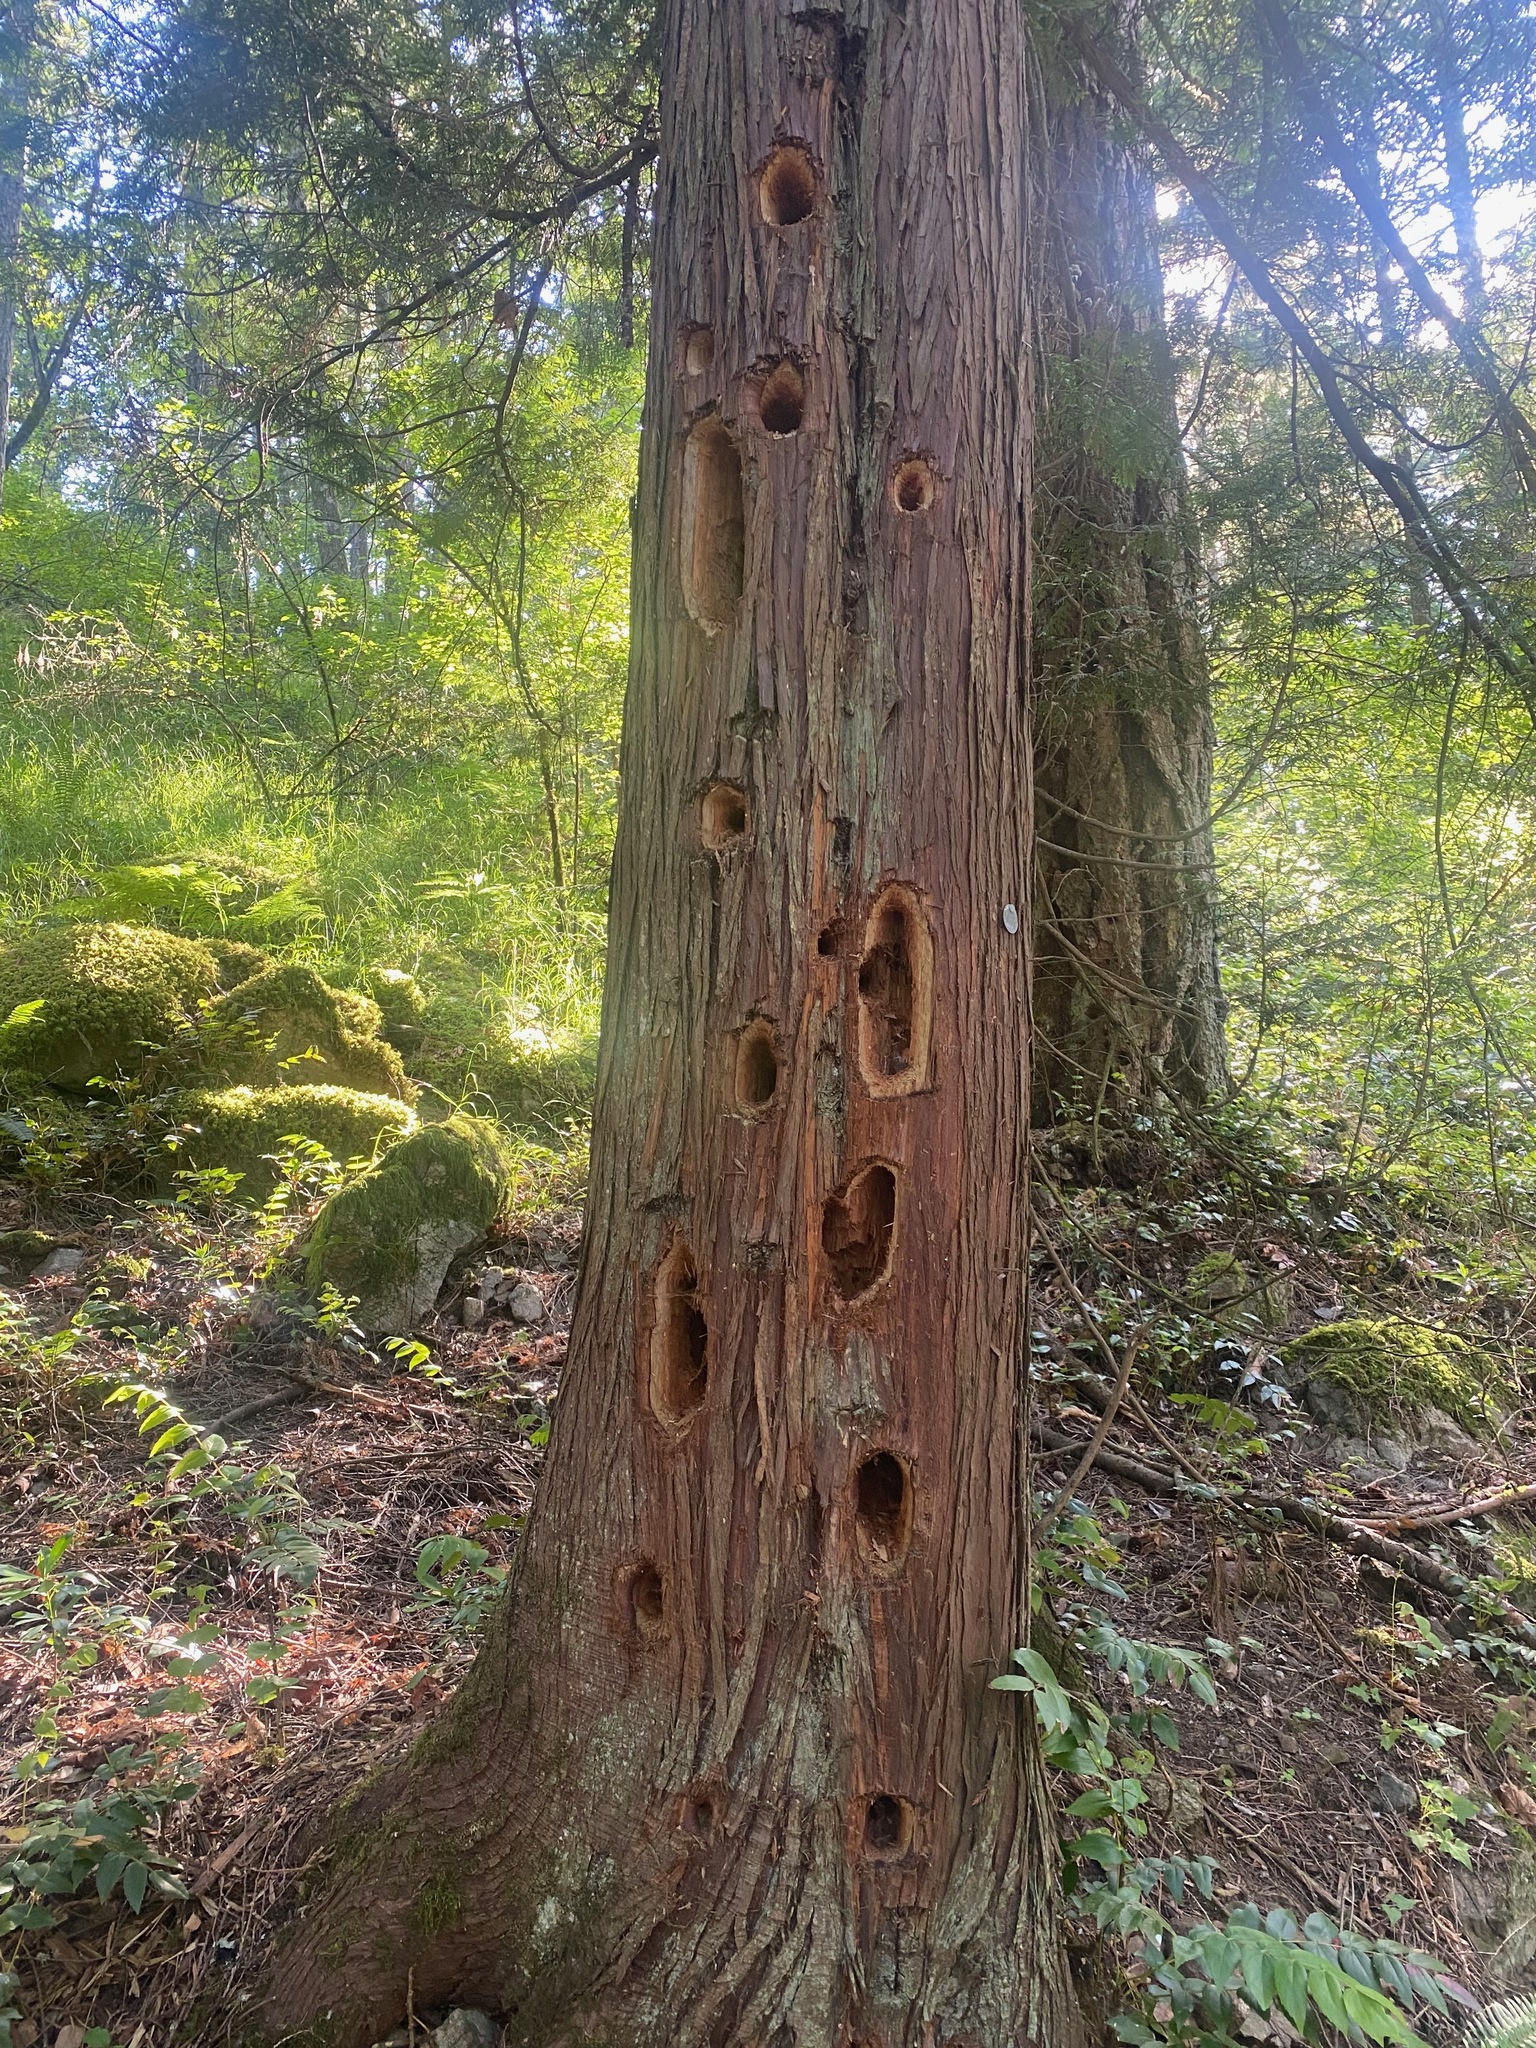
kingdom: Animalia
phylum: Chordata
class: Aves
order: Piciformes
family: Picidae
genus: Dryocopus
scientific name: Dryocopus pileatus
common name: Pileated woodpecker
